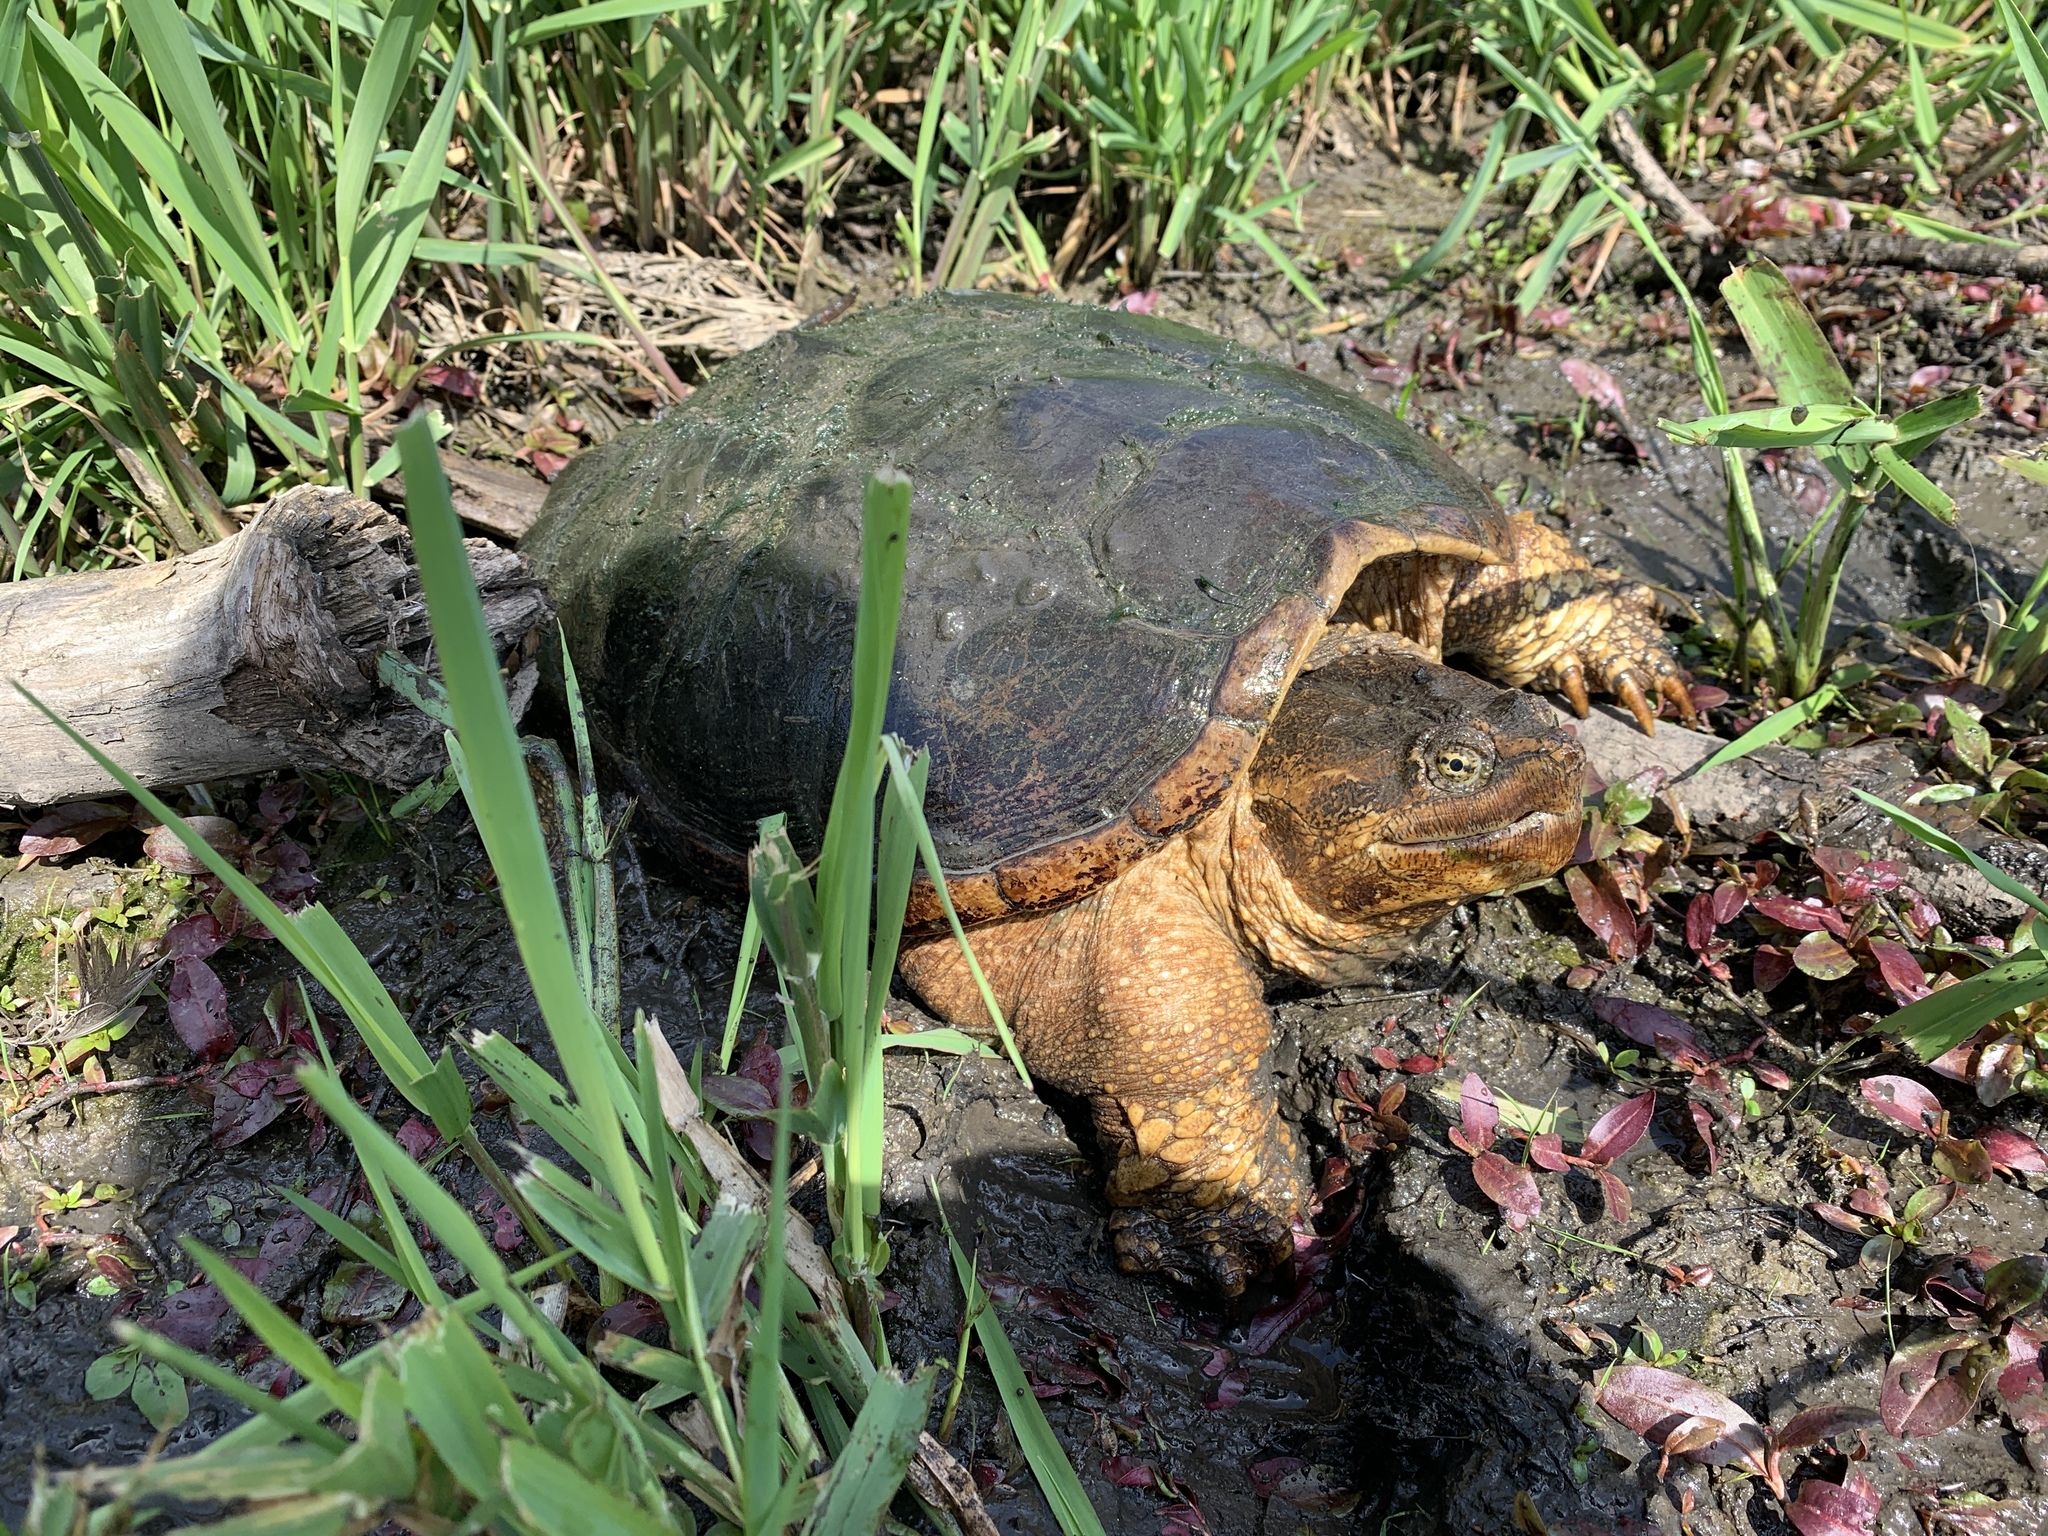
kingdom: Animalia
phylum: Chordata
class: Testudines
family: Chelydridae
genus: Chelydra
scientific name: Chelydra serpentina
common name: Common snapping turtle
